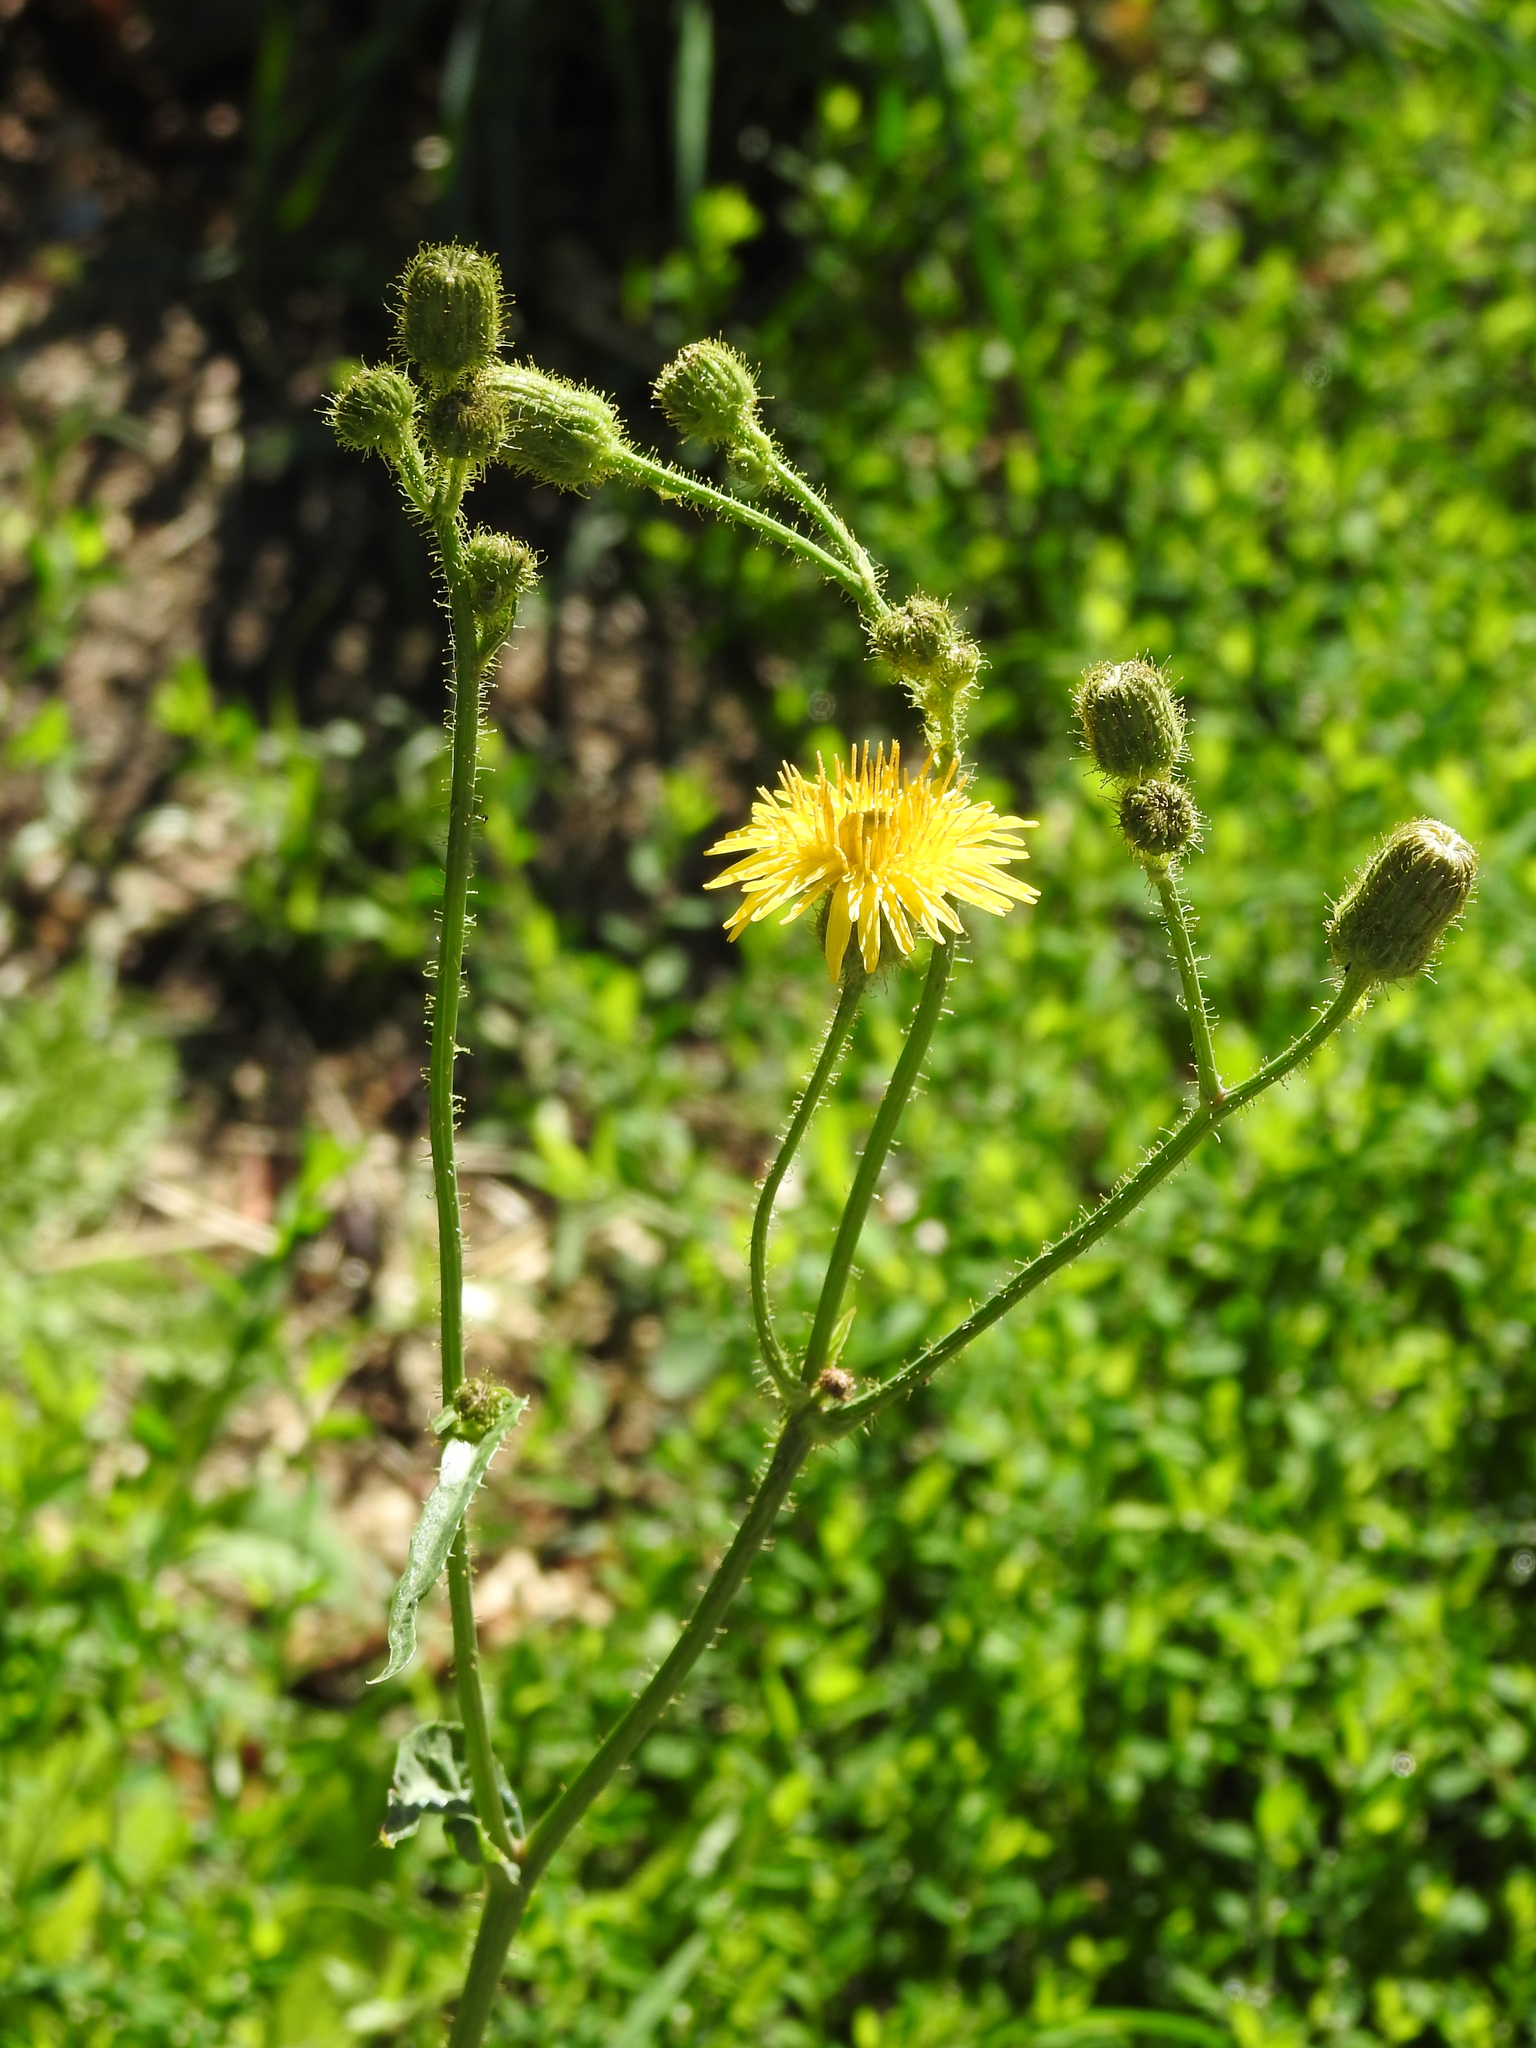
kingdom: Plantae
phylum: Tracheophyta
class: Magnoliopsida
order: Asterales
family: Asteraceae
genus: Sonchus
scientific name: Sonchus arvensis
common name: Perennial sow-thistle
